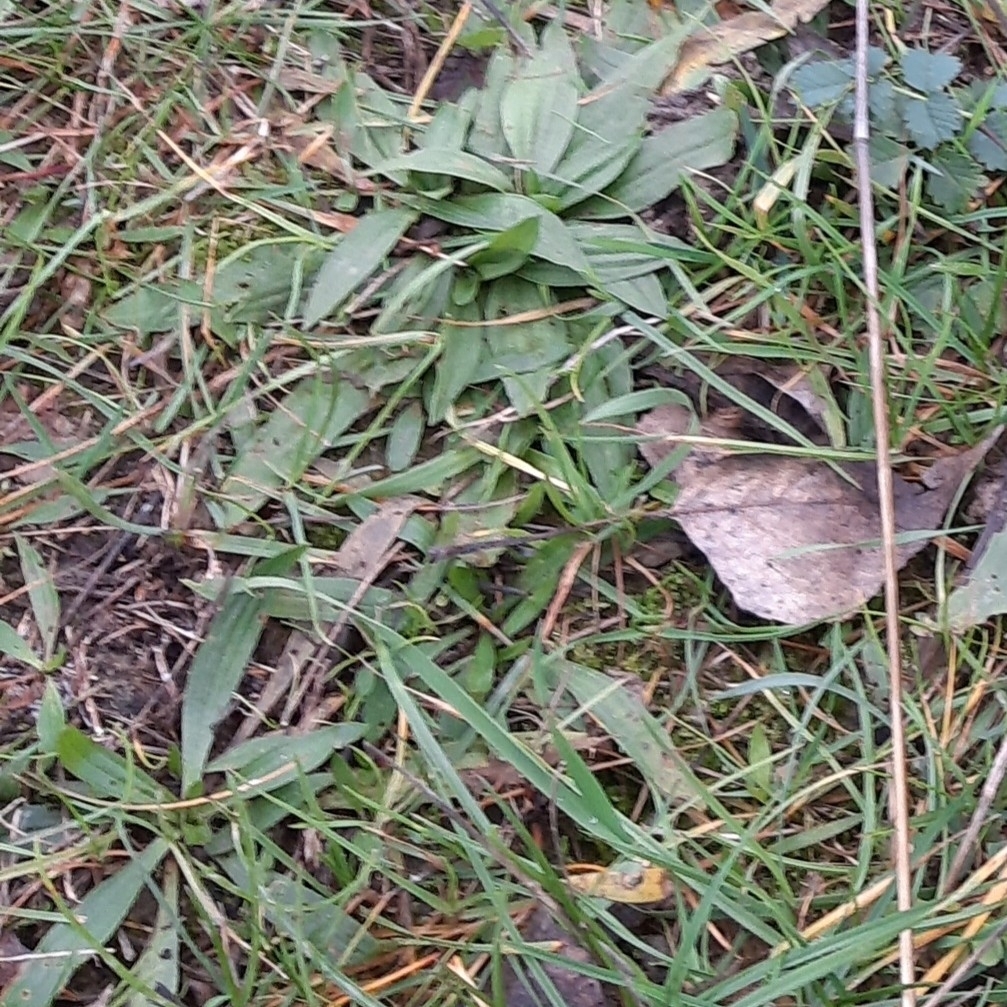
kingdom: Plantae
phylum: Tracheophyta
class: Magnoliopsida
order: Lamiales
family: Plantaginaceae
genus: Plantago
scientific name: Plantago lanceolata
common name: Ribwort plantain
